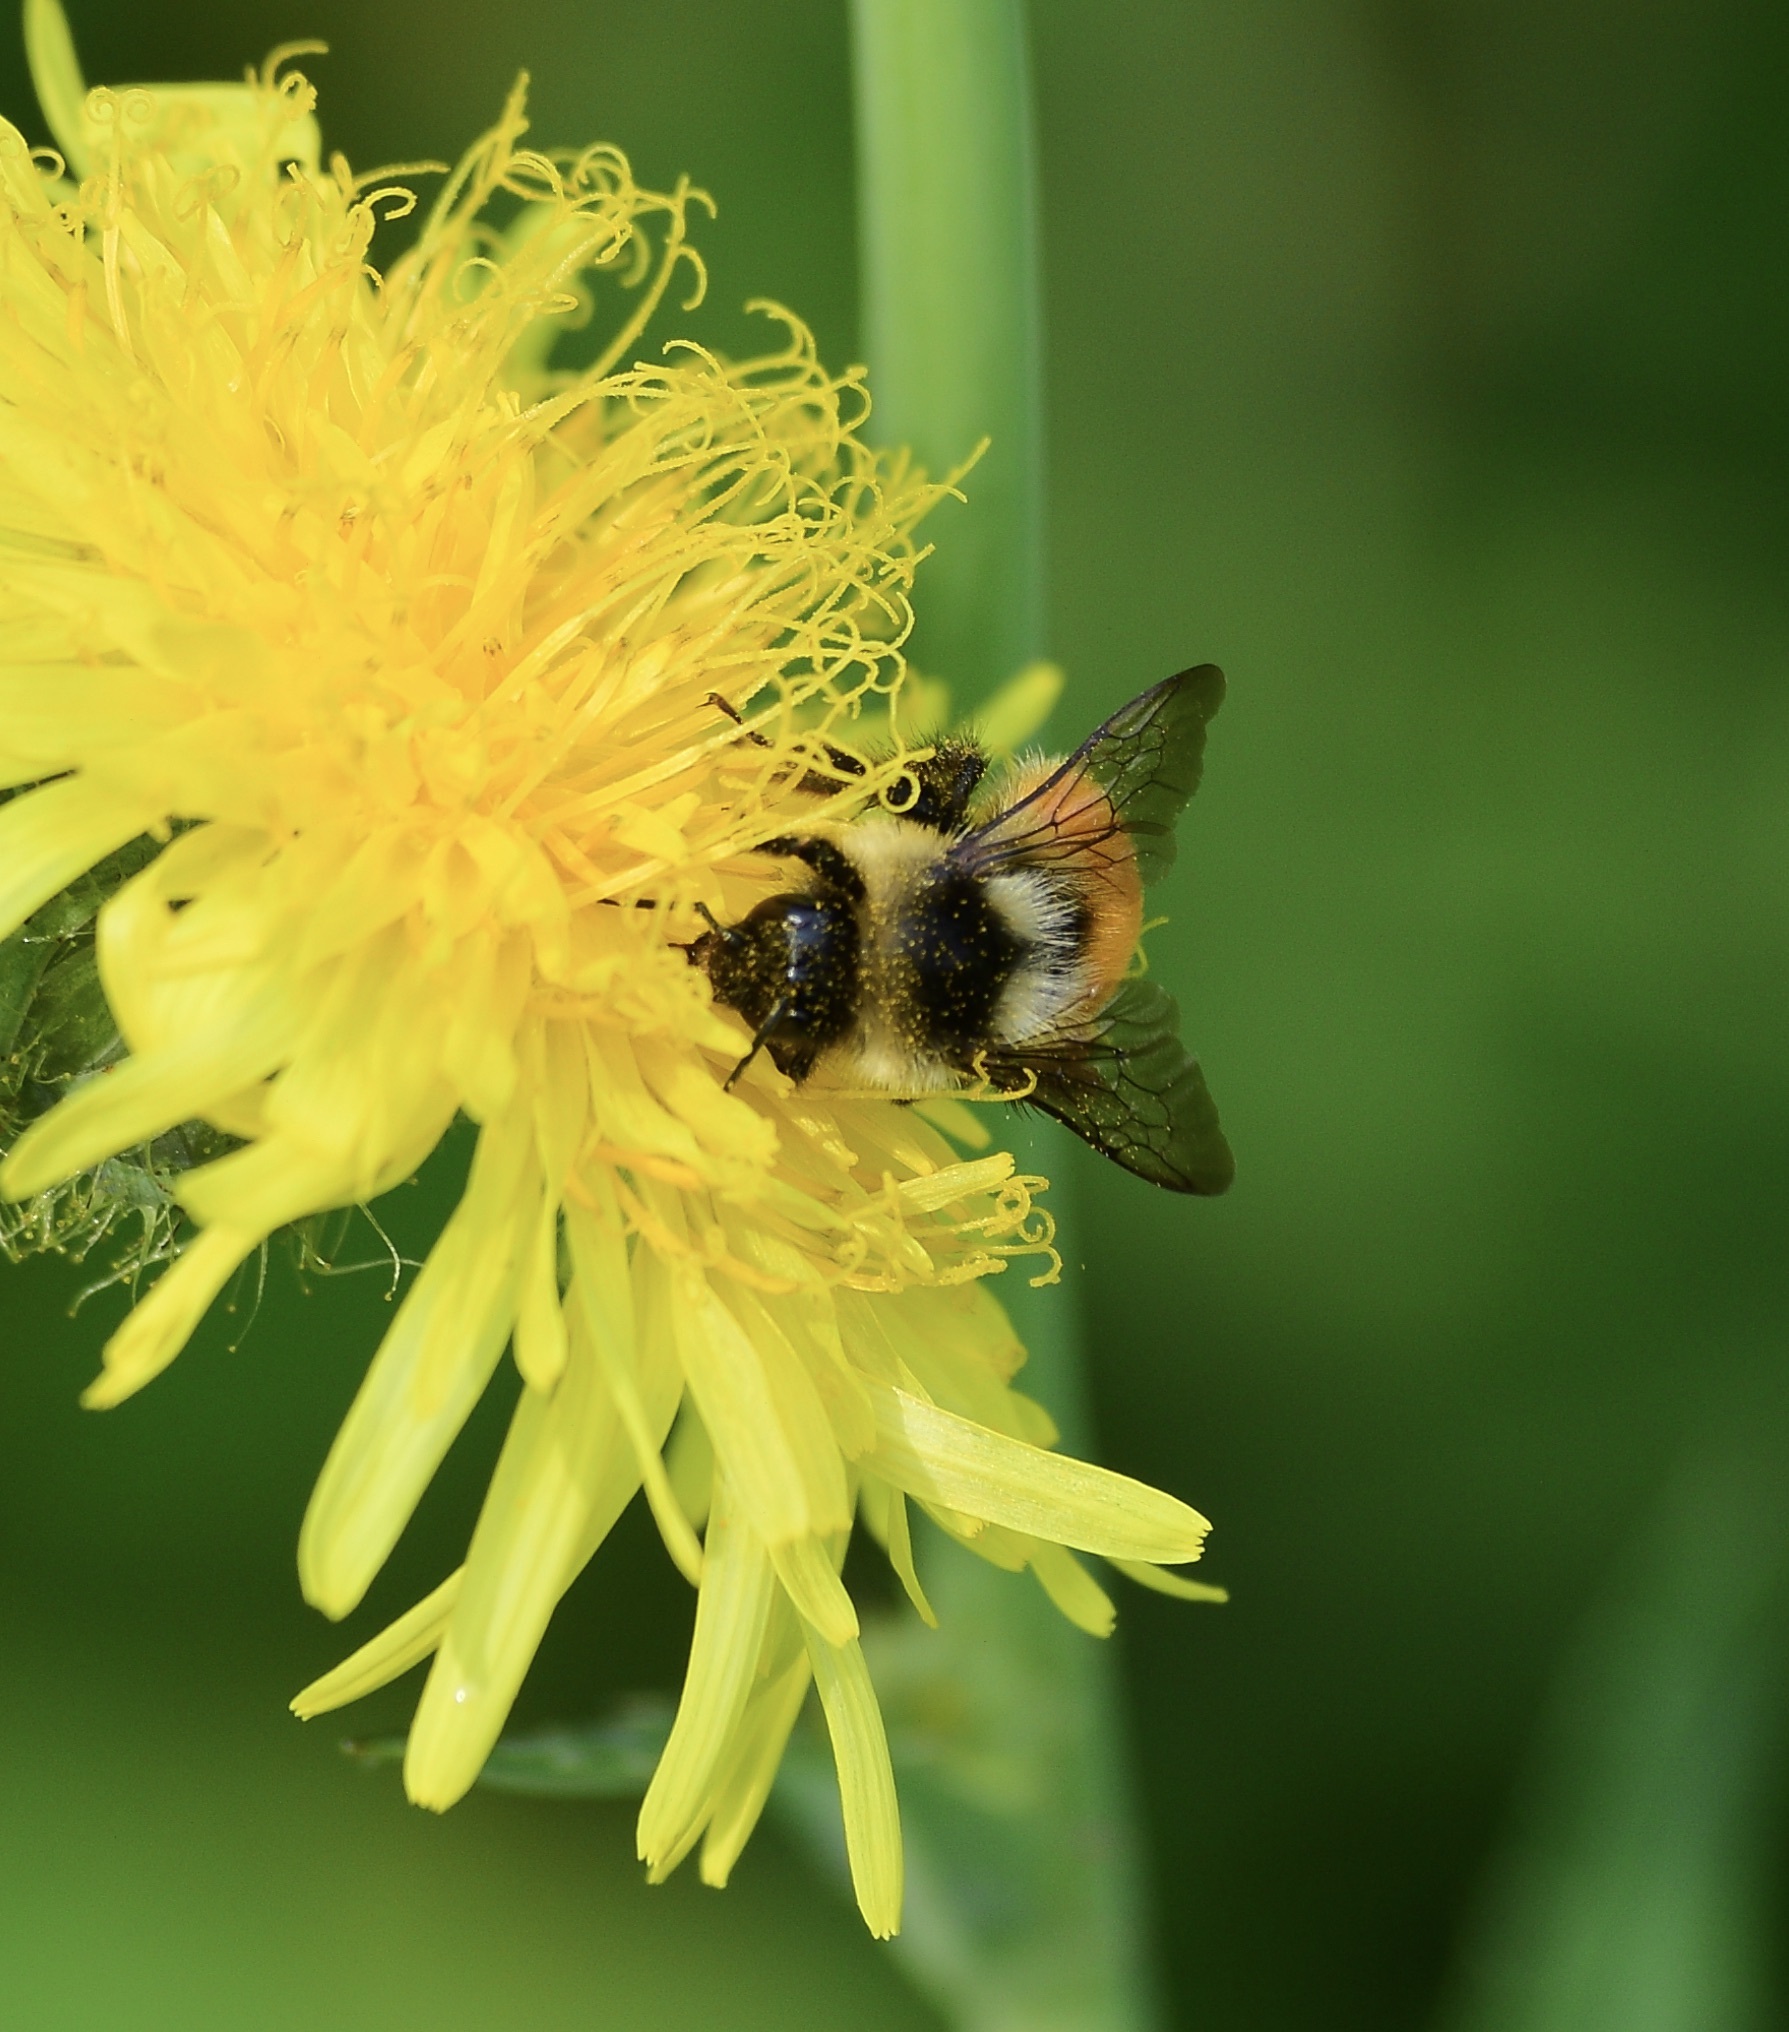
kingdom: Animalia
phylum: Arthropoda
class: Insecta
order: Hymenoptera
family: Apidae
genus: Bombus
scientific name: Bombus ternarius
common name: Tri-colored bumble bee
